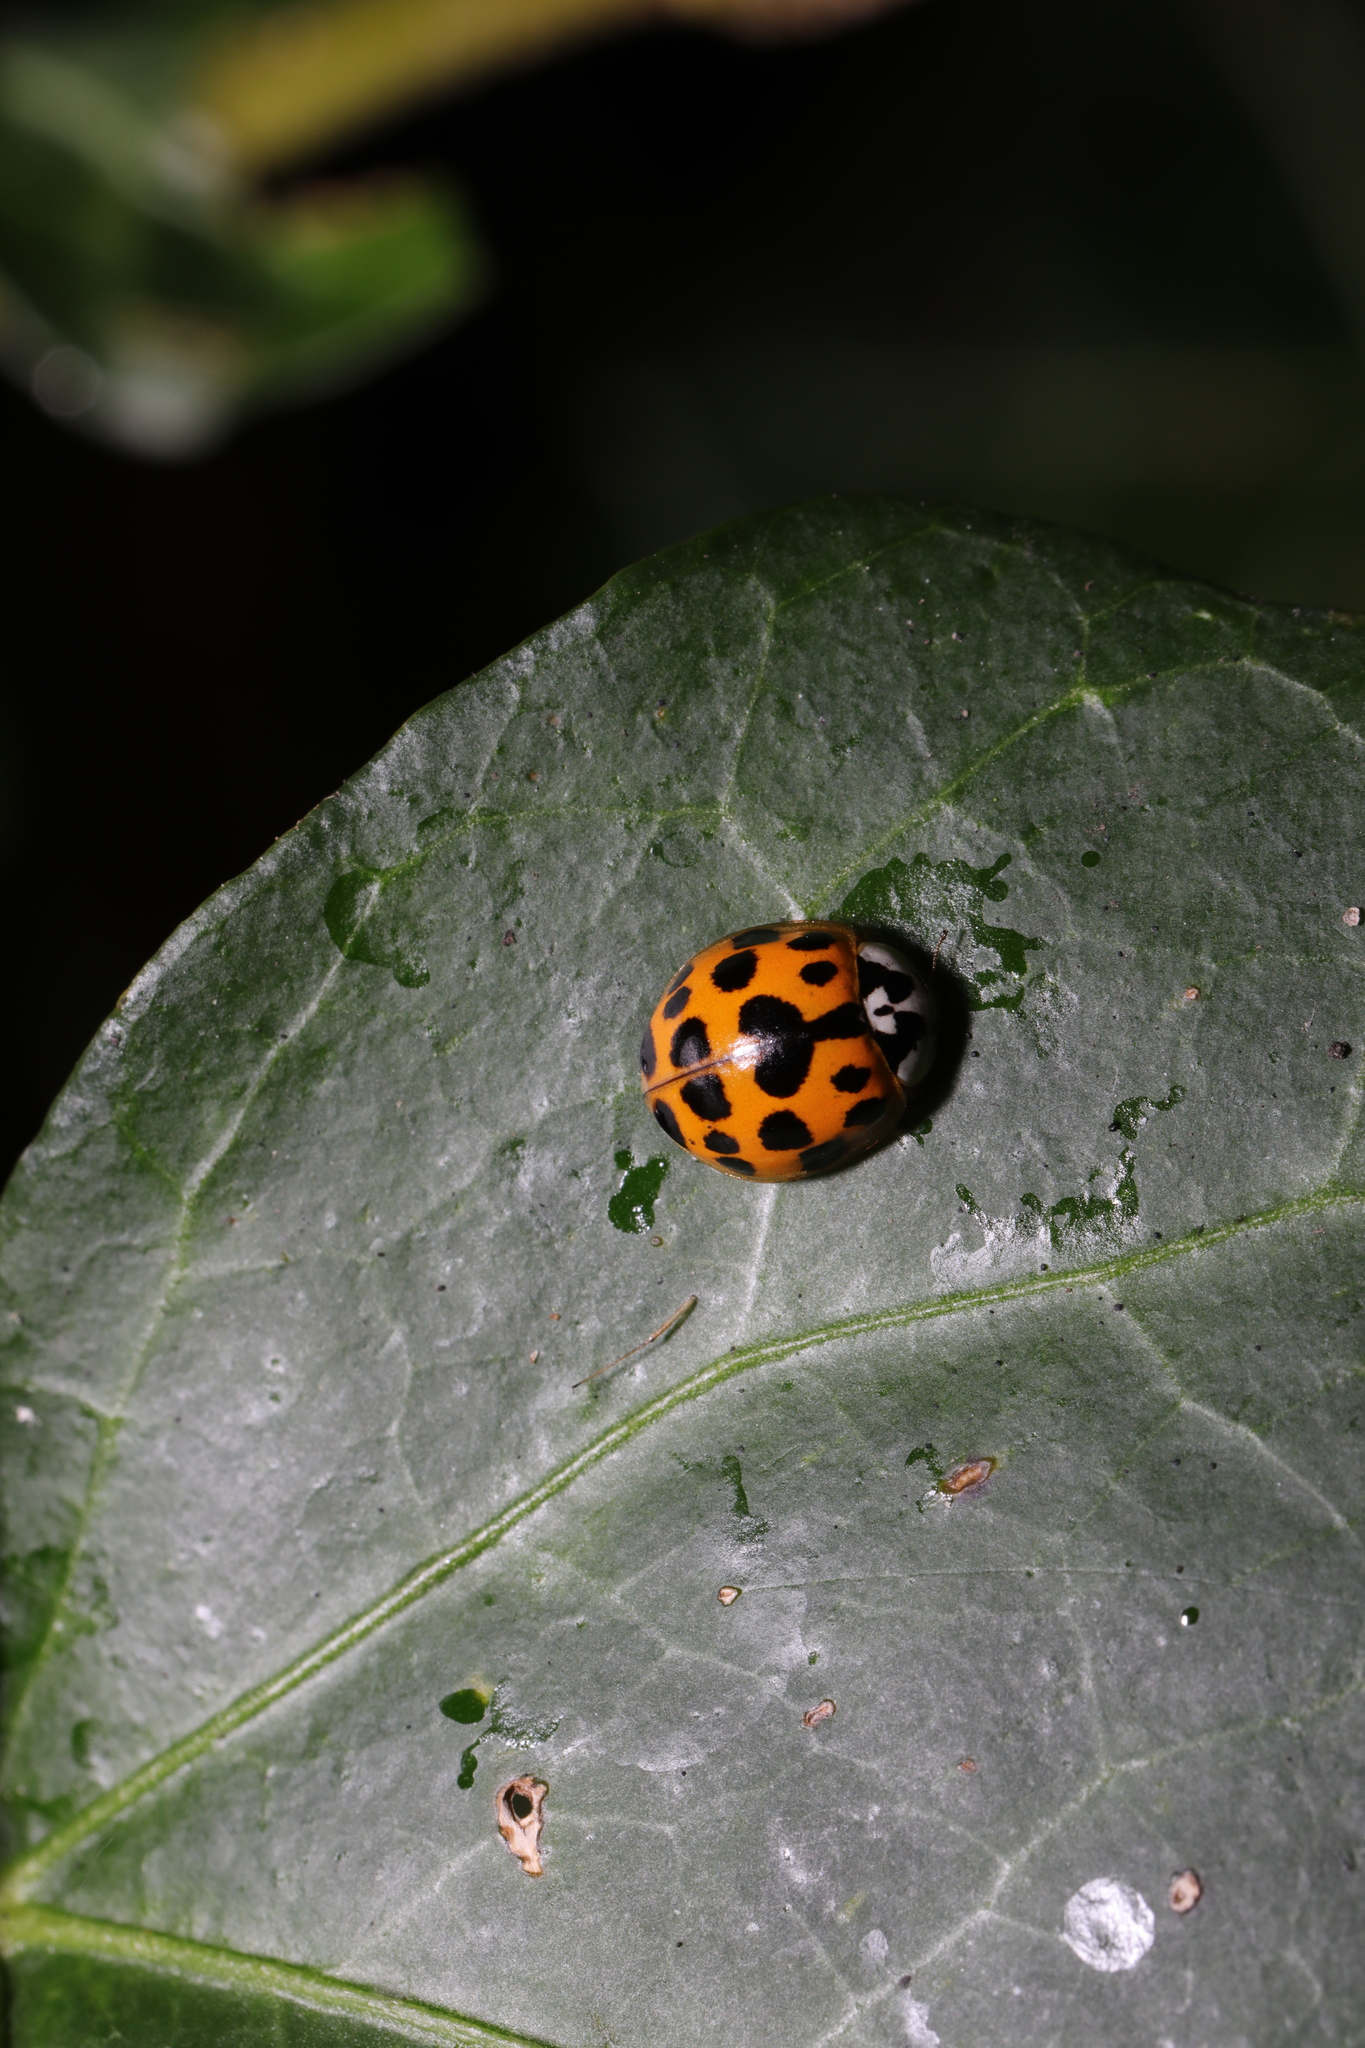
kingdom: Animalia
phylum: Arthropoda
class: Insecta
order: Coleoptera
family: Coccinellidae
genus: Harmonia
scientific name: Harmonia axyridis
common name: Harlequin ladybird
